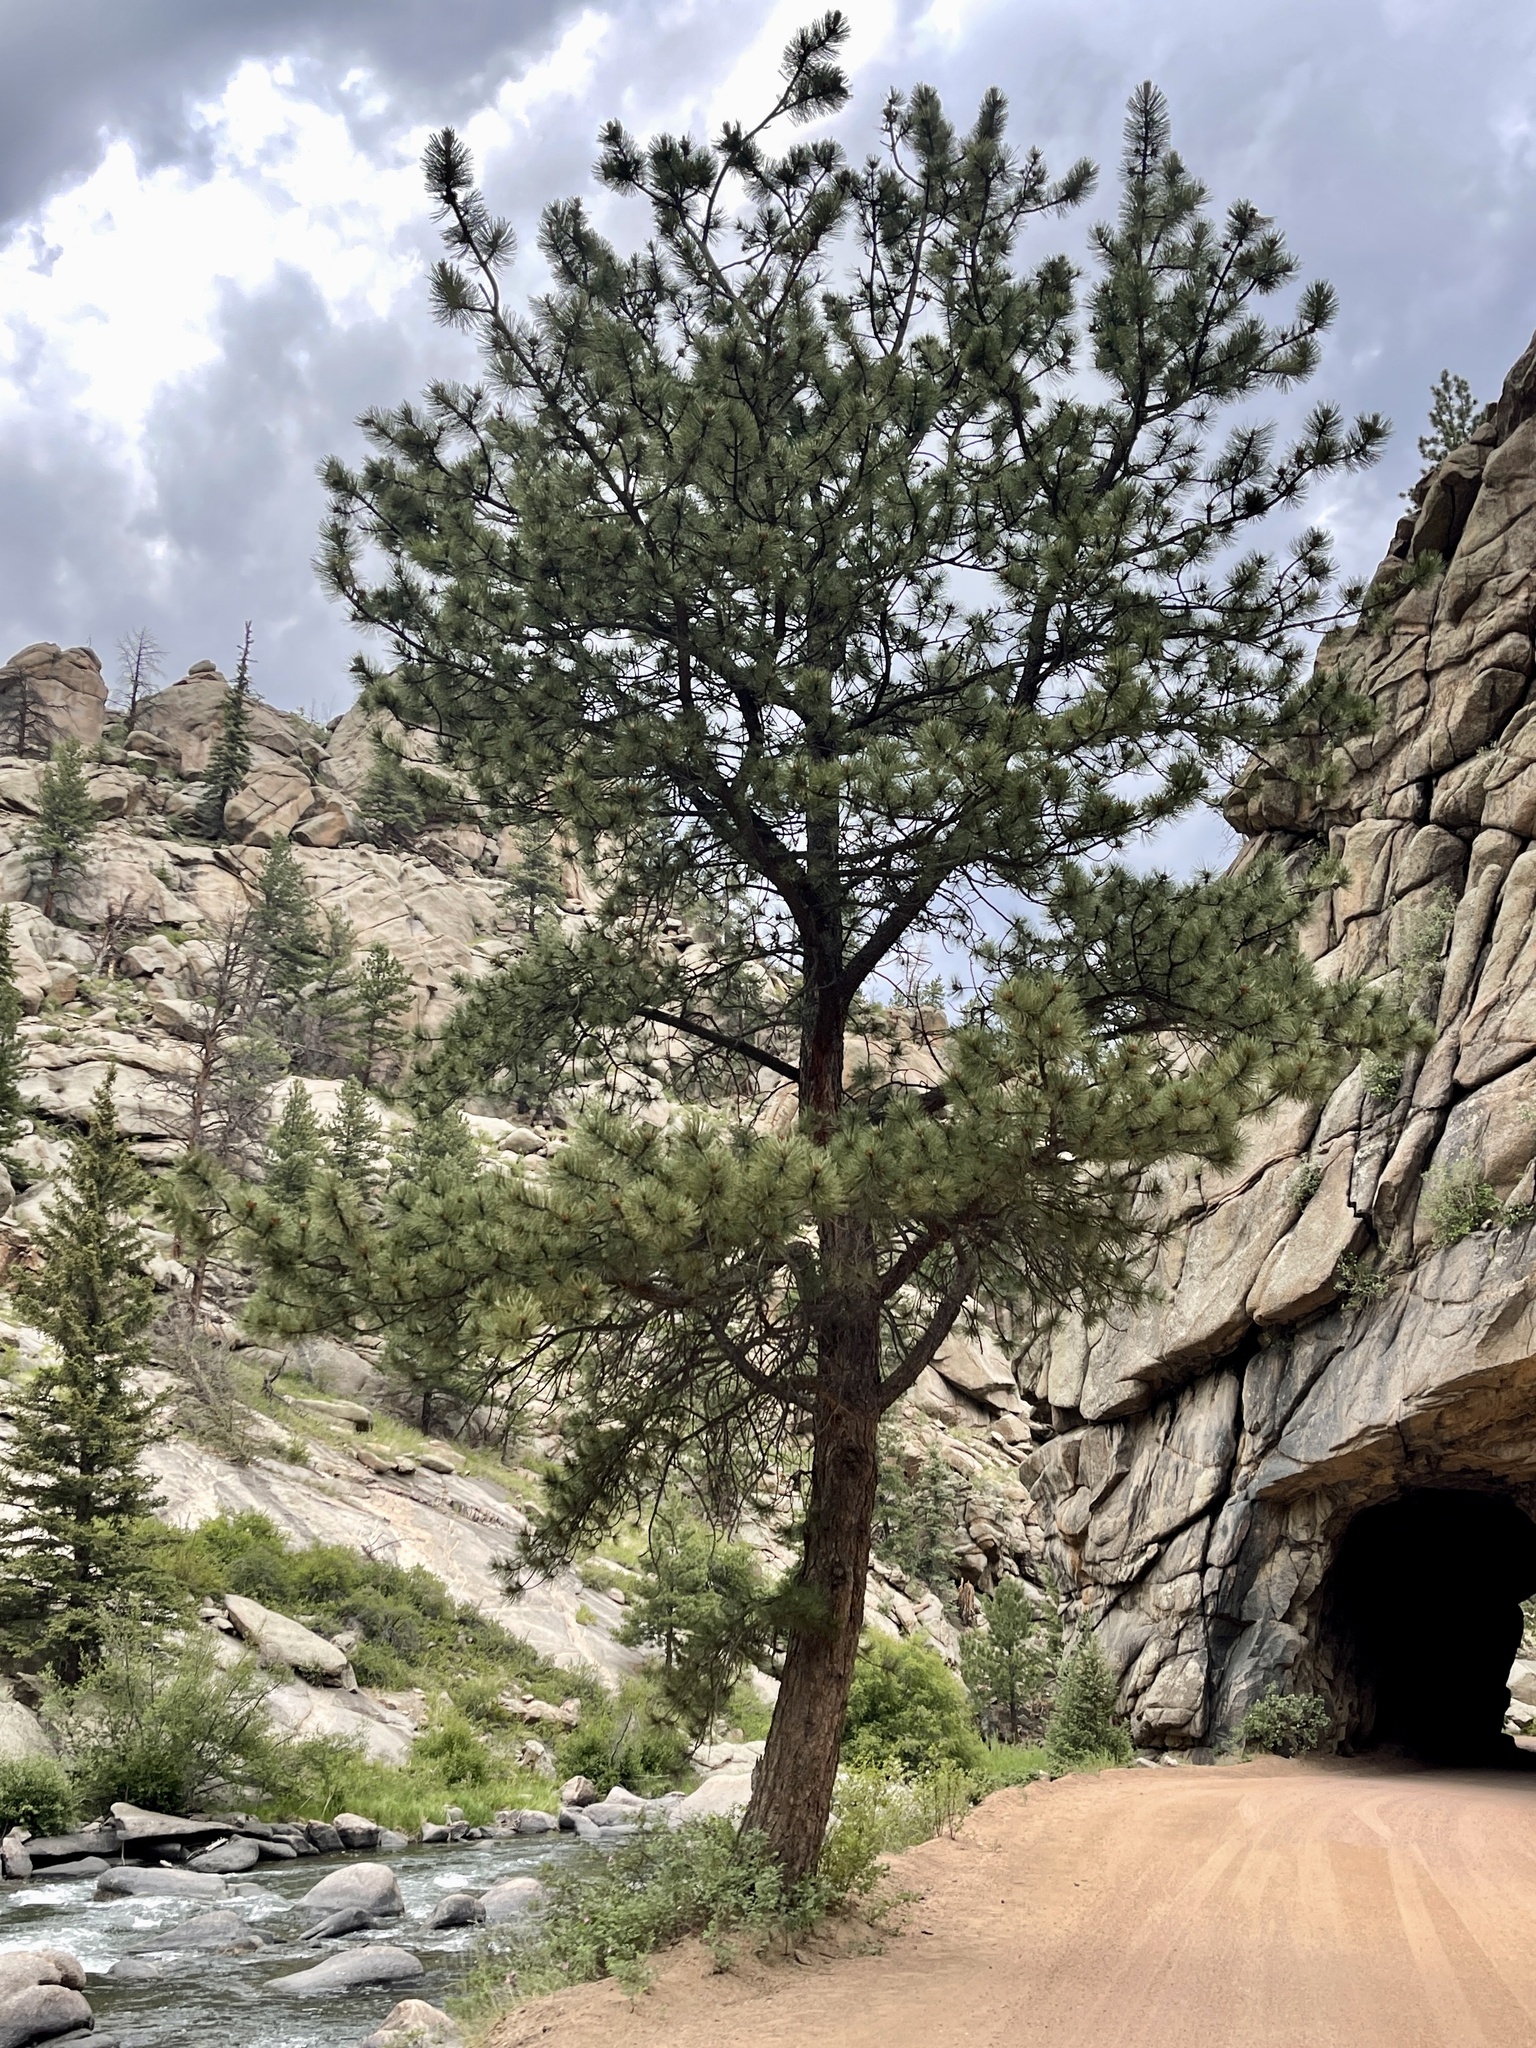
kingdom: Plantae
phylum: Tracheophyta
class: Pinopsida
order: Pinales
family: Pinaceae
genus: Pinus
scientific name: Pinus ponderosa
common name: Western yellow-pine
